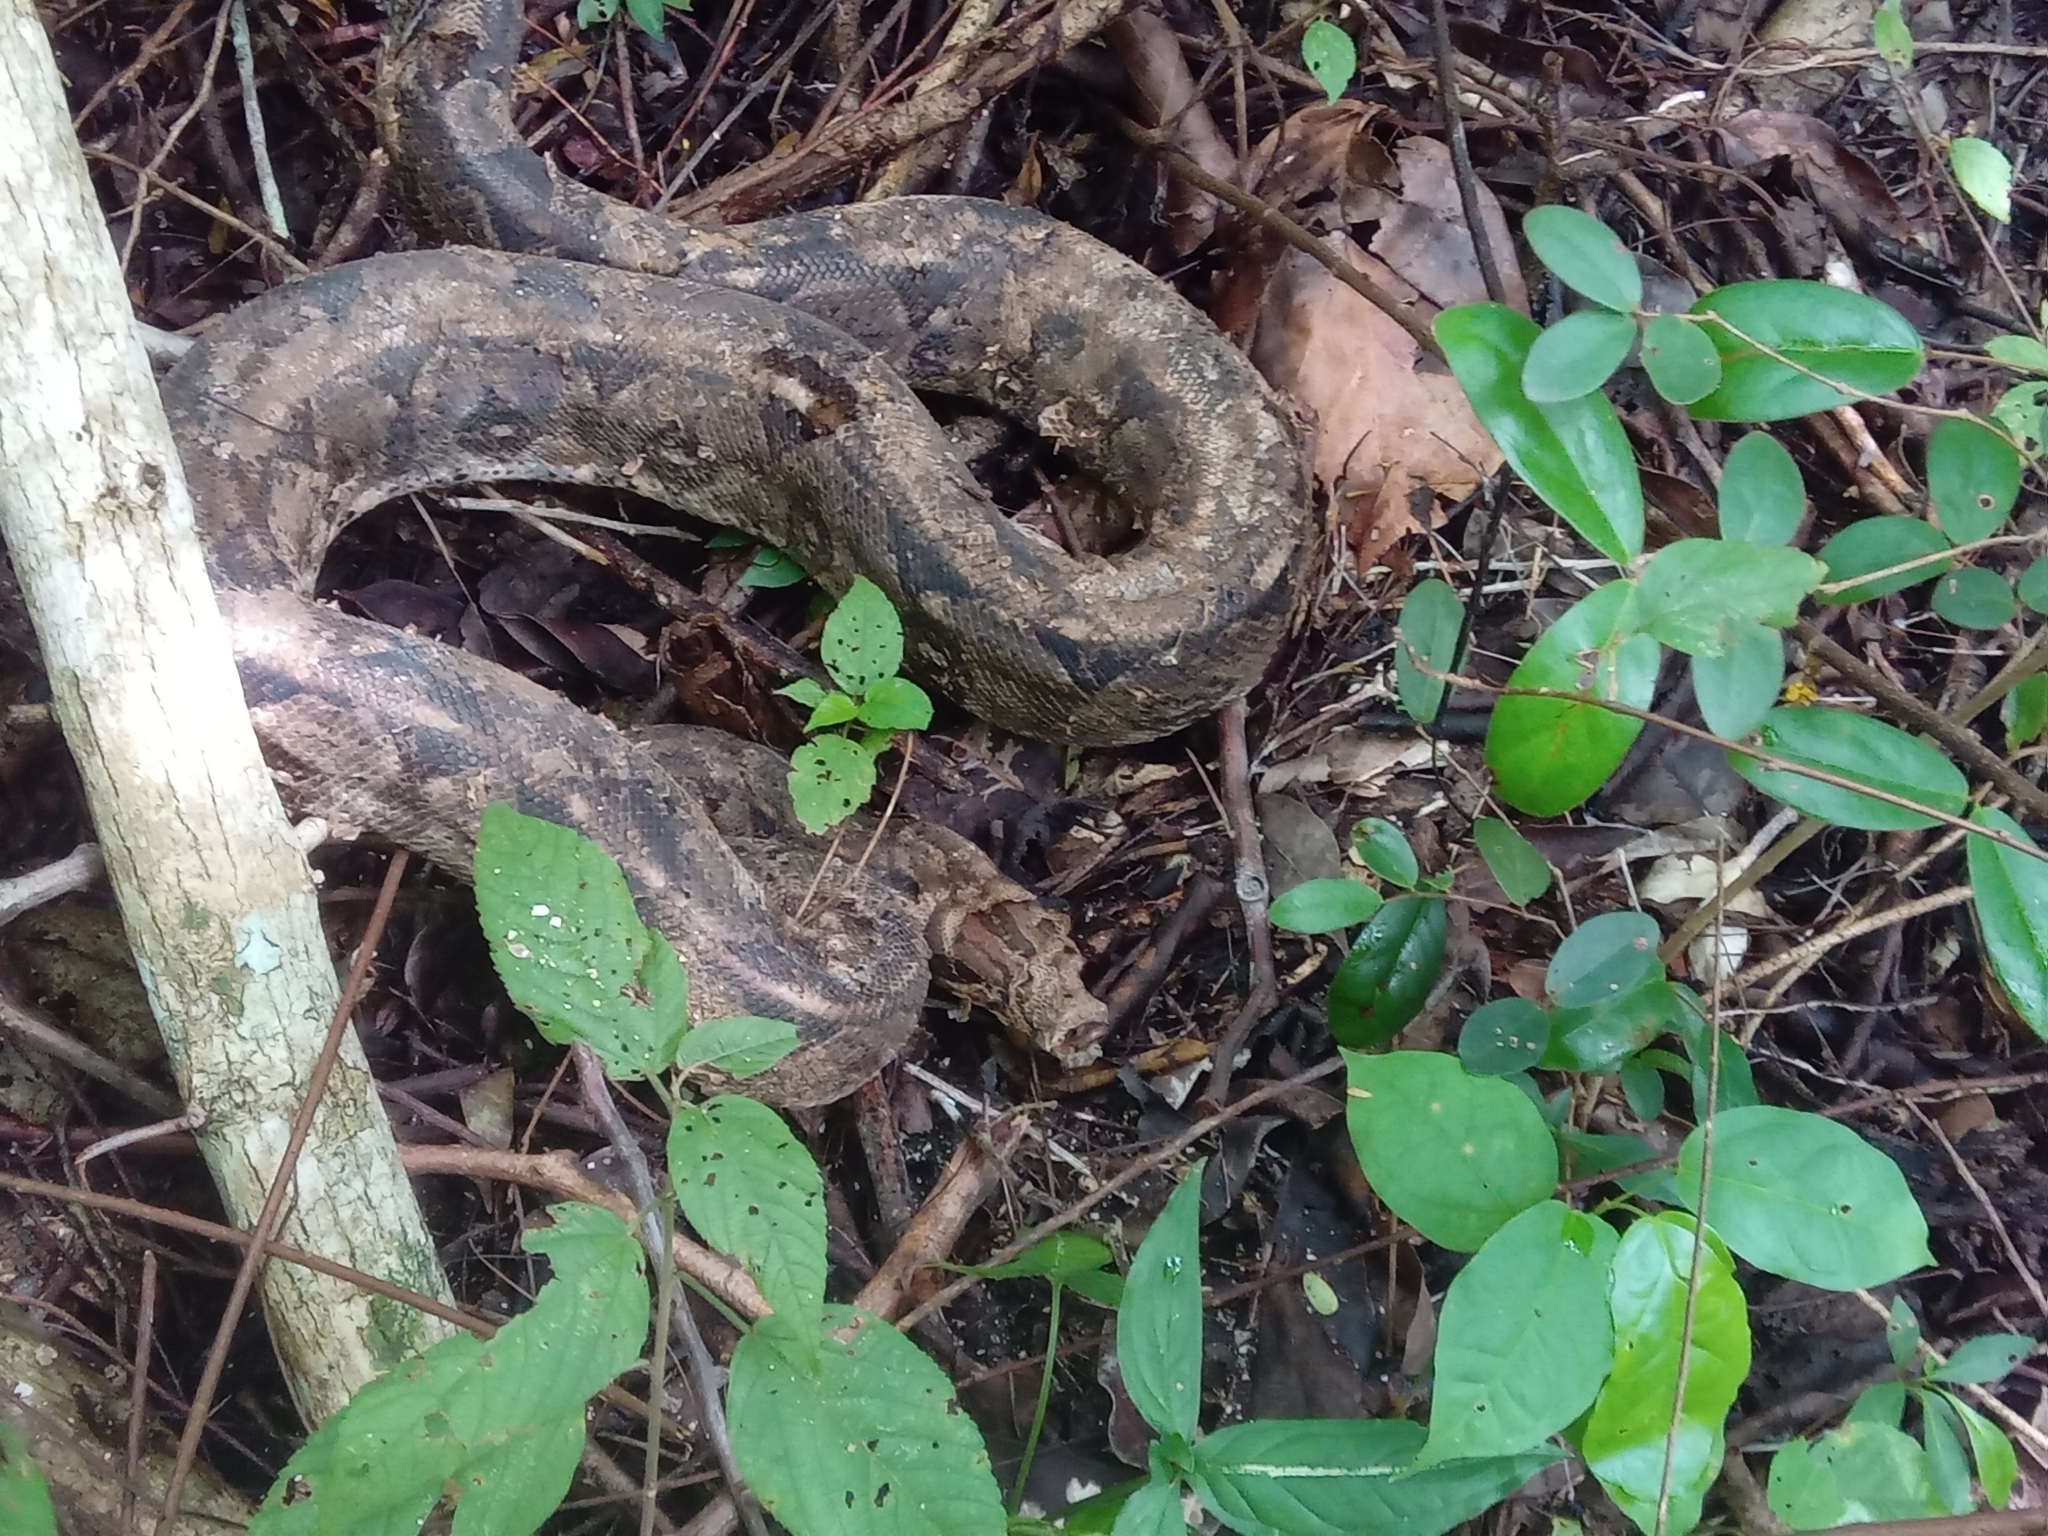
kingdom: Animalia
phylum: Chordata
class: Squamata
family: Boidae
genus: Boa
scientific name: Boa imperator
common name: Central american boa
